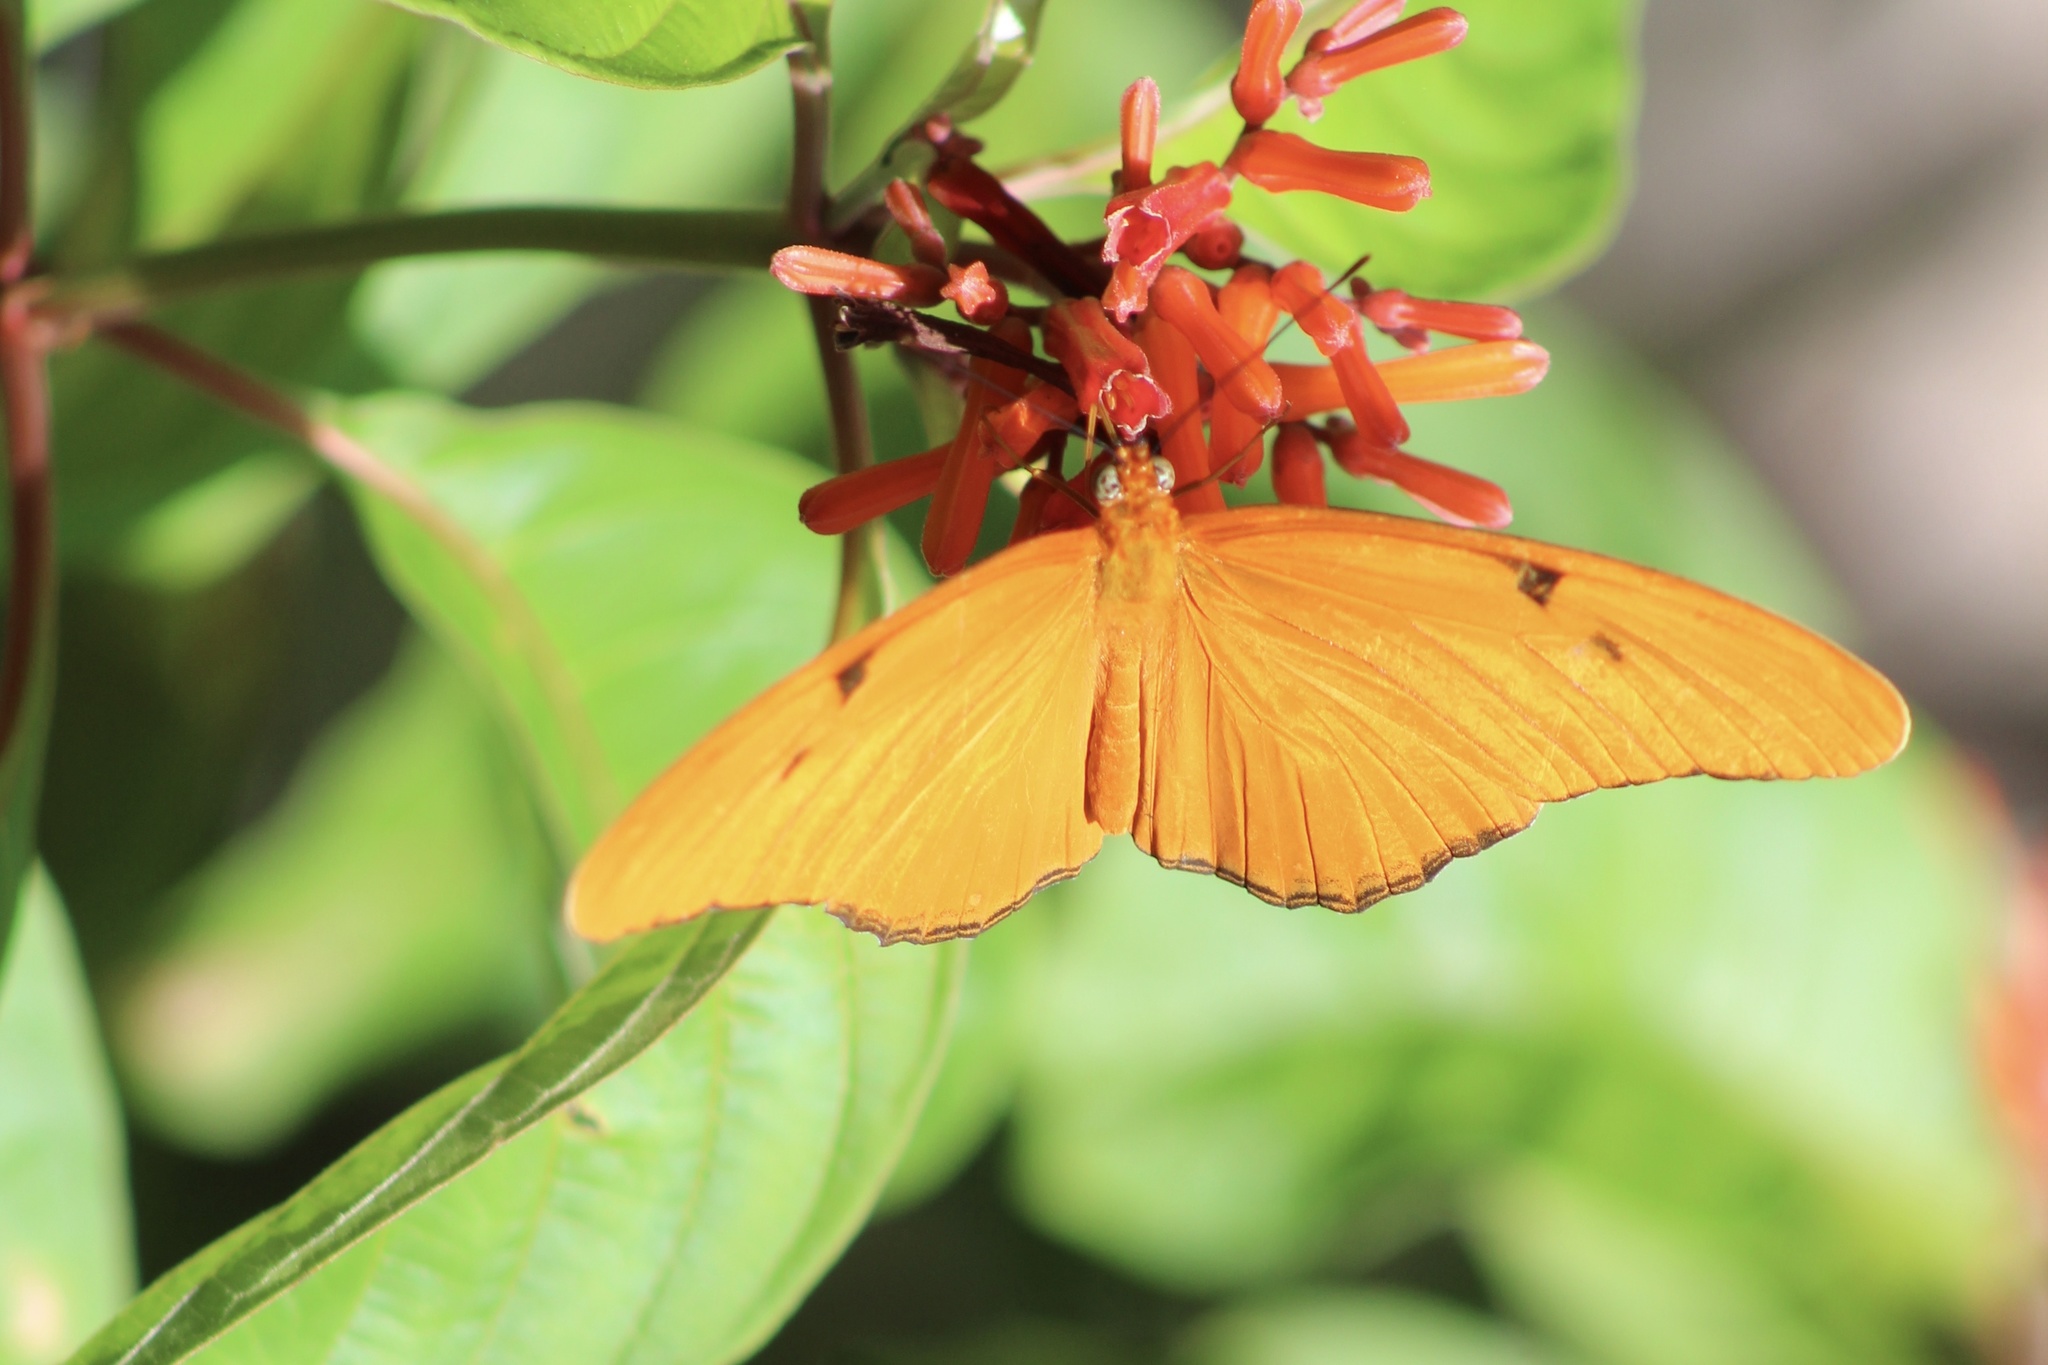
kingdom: Animalia
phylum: Arthropoda
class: Insecta
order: Lepidoptera
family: Nymphalidae
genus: Dryas
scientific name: Dryas iulia
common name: Flambeau
